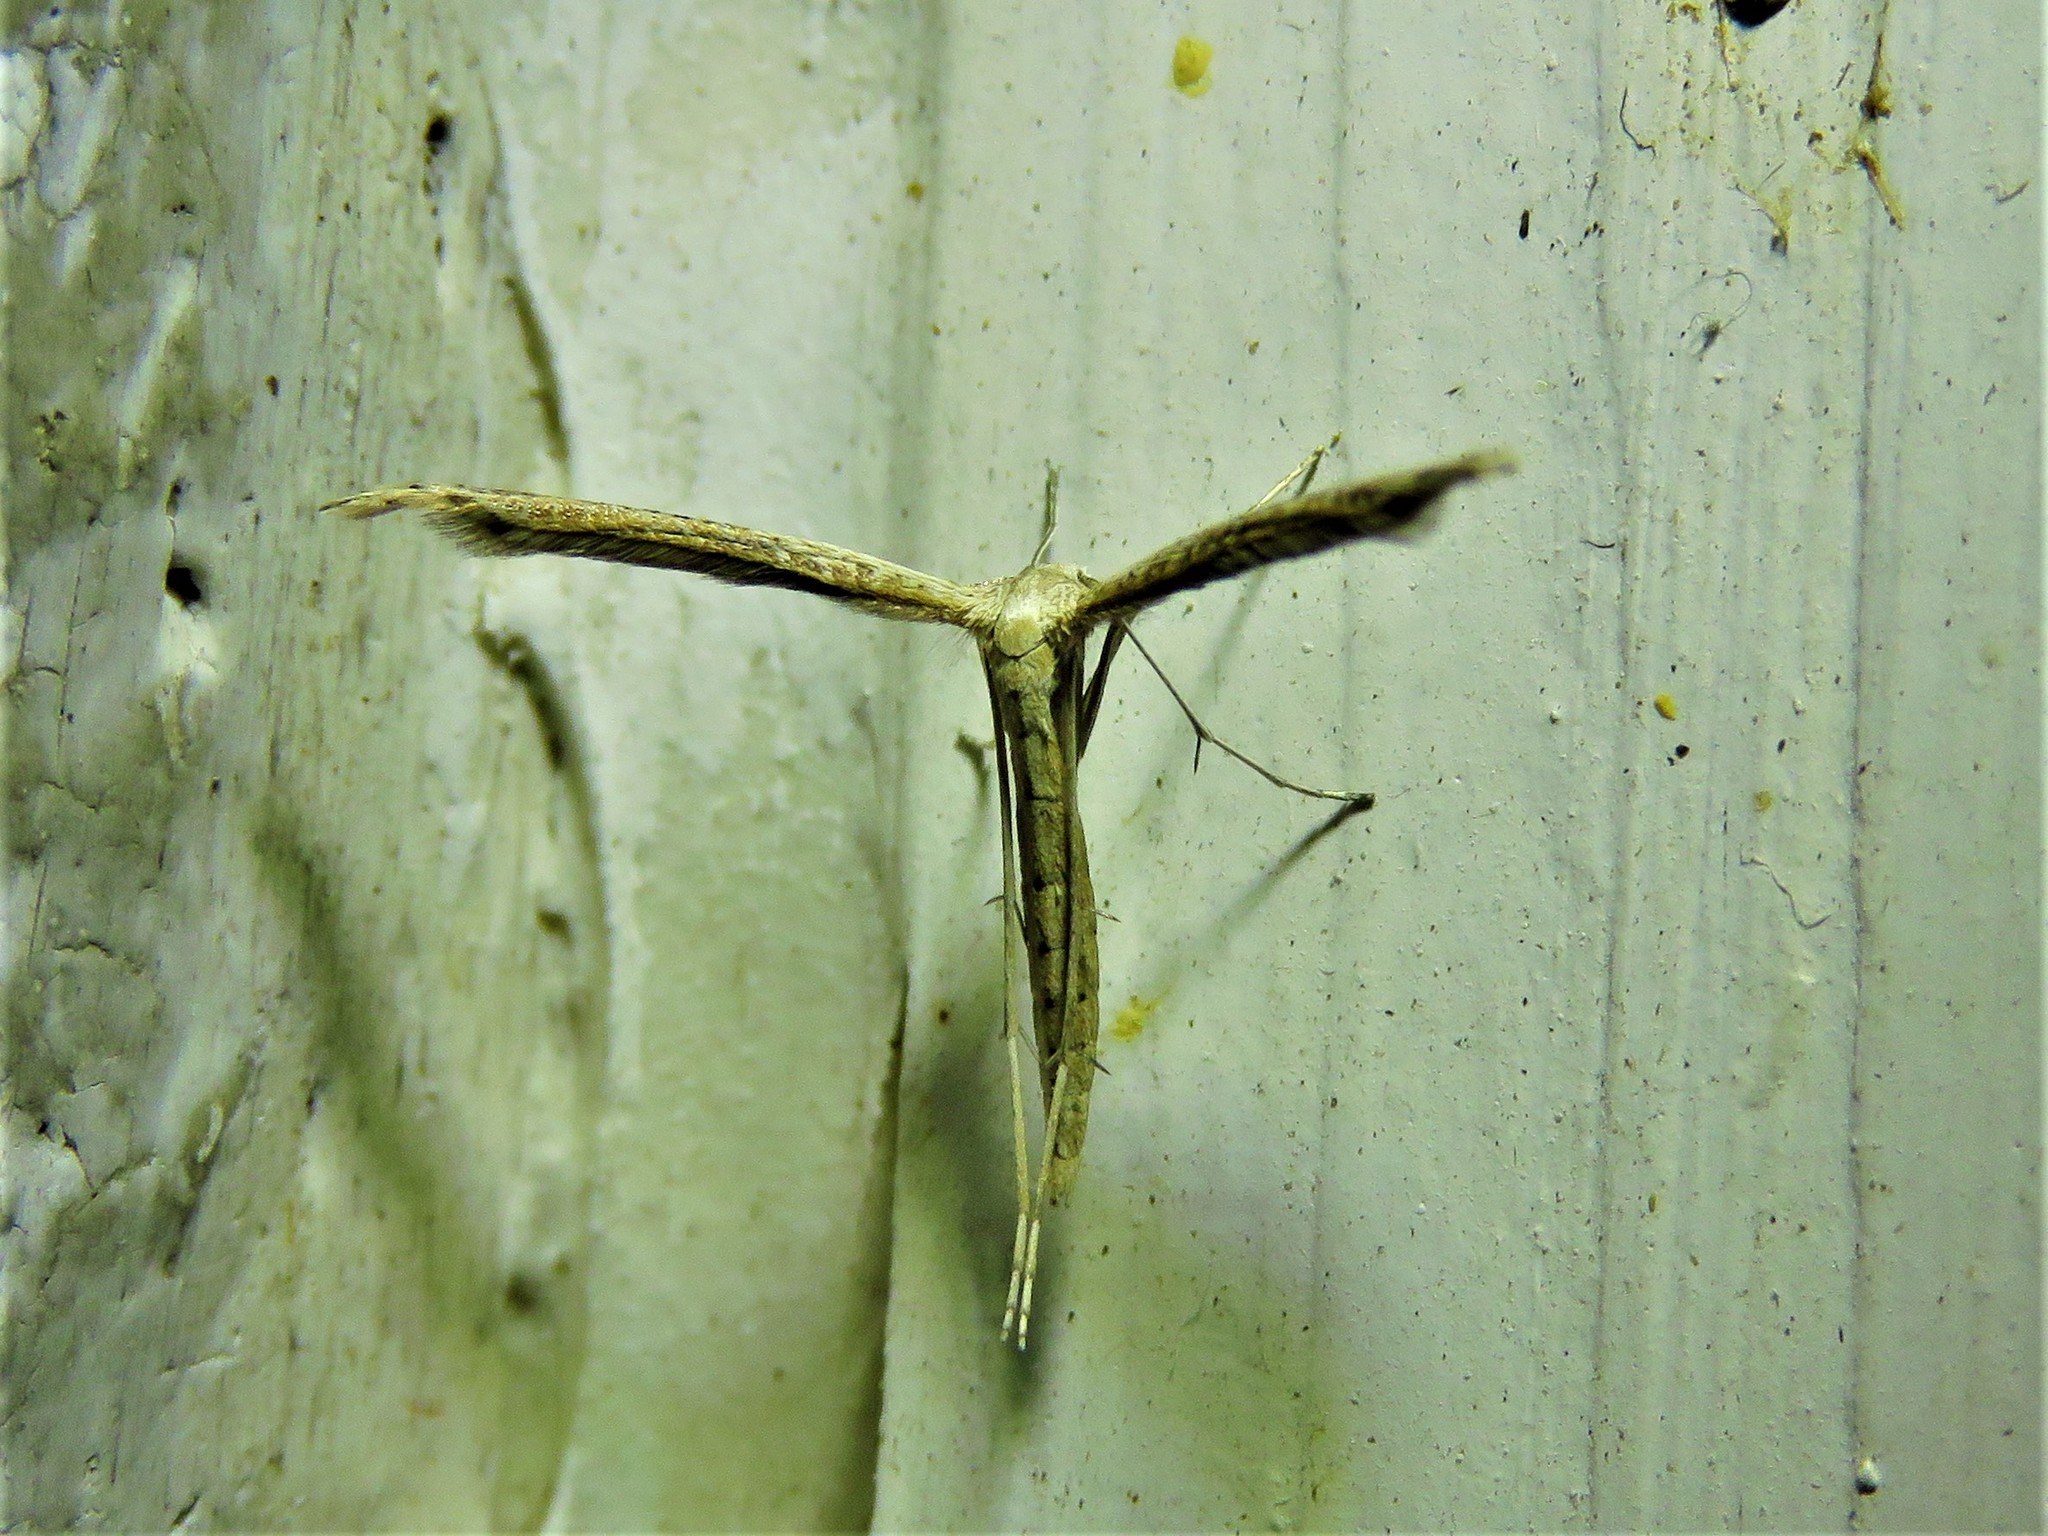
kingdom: Animalia
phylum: Arthropoda
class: Insecta
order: Lepidoptera
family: Pterophoridae
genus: Lioptilodes
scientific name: Lioptilodes albistriolatus
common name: Moth
